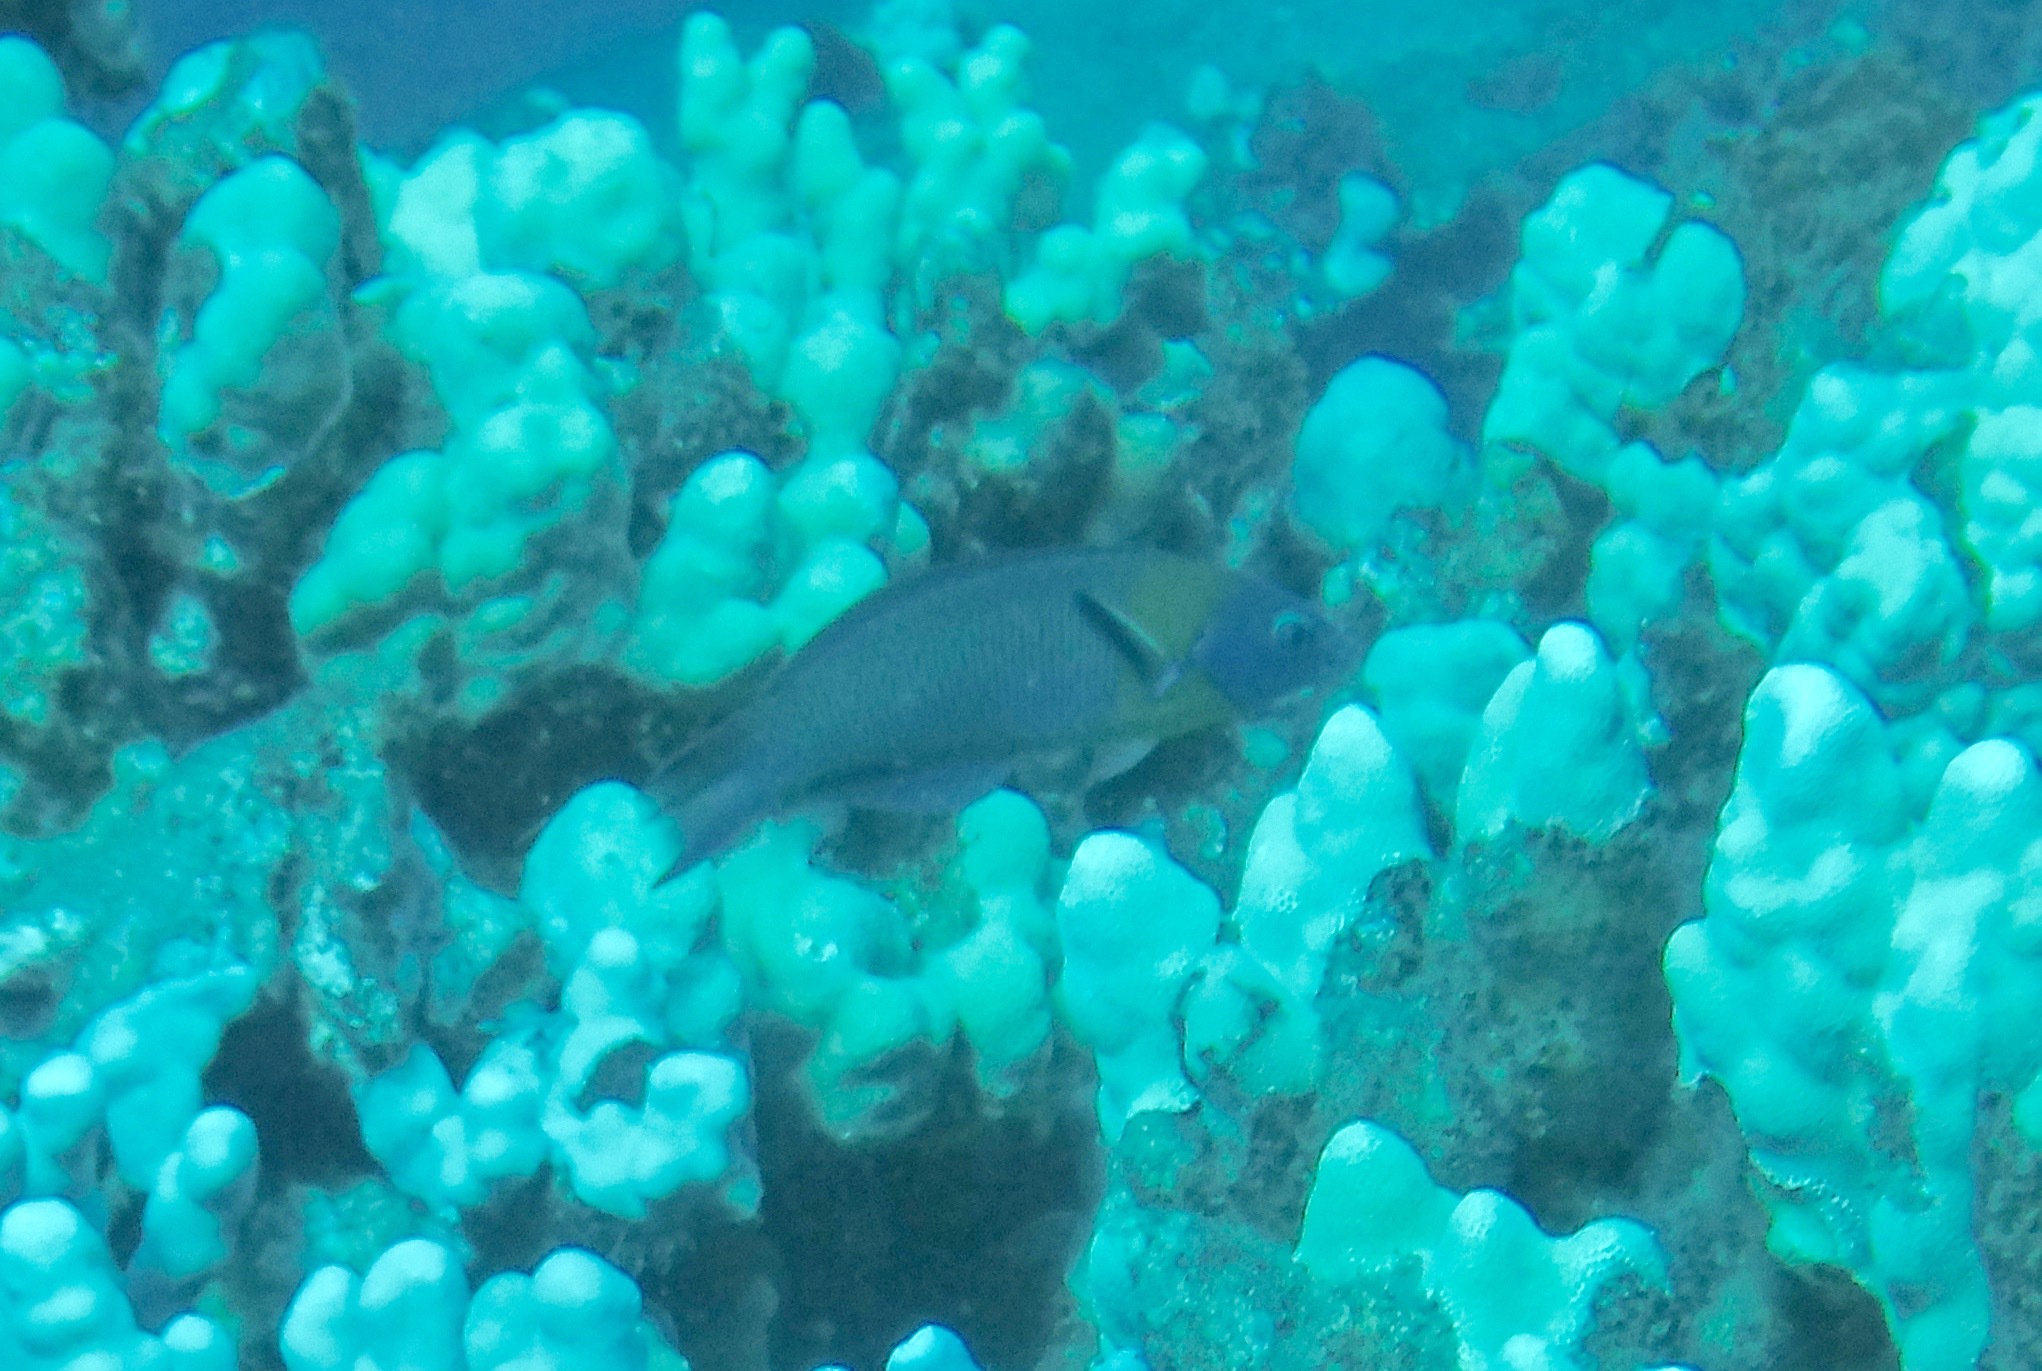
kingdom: Animalia
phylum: Chordata
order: Perciformes
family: Labridae
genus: Thalassoma
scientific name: Thalassoma duperrey
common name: Saddle wrasse
